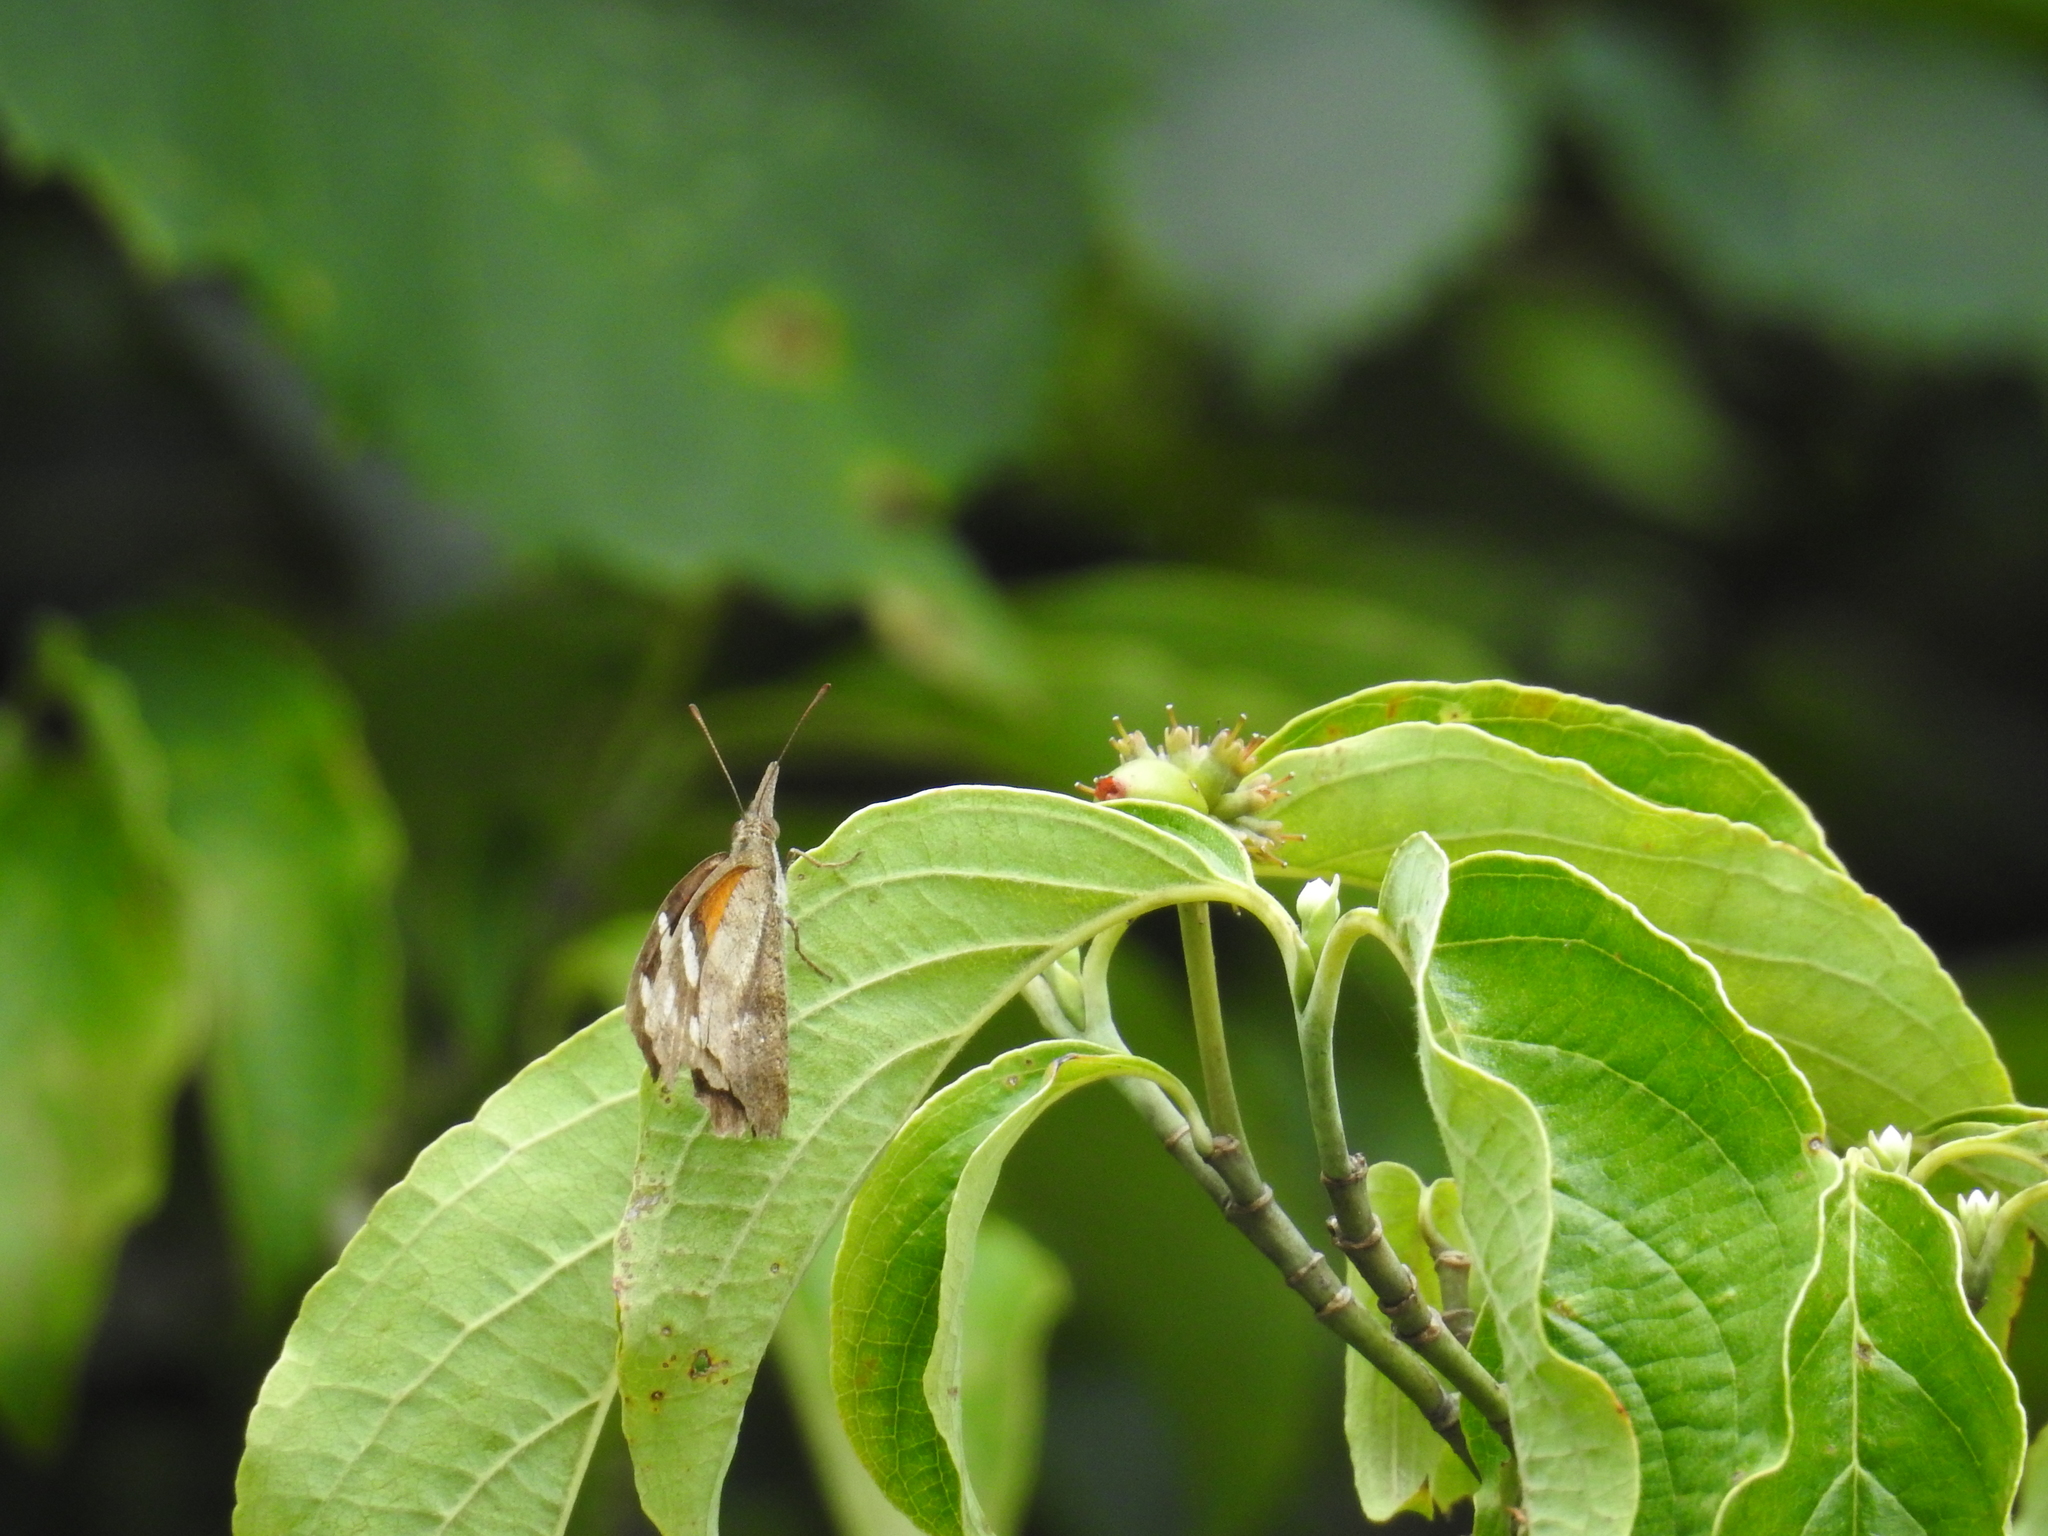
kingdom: Animalia
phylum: Arthropoda
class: Insecta
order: Lepidoptera
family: Nymphalidae
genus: Libytheana
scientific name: Libytheana carinenta
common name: American snout
